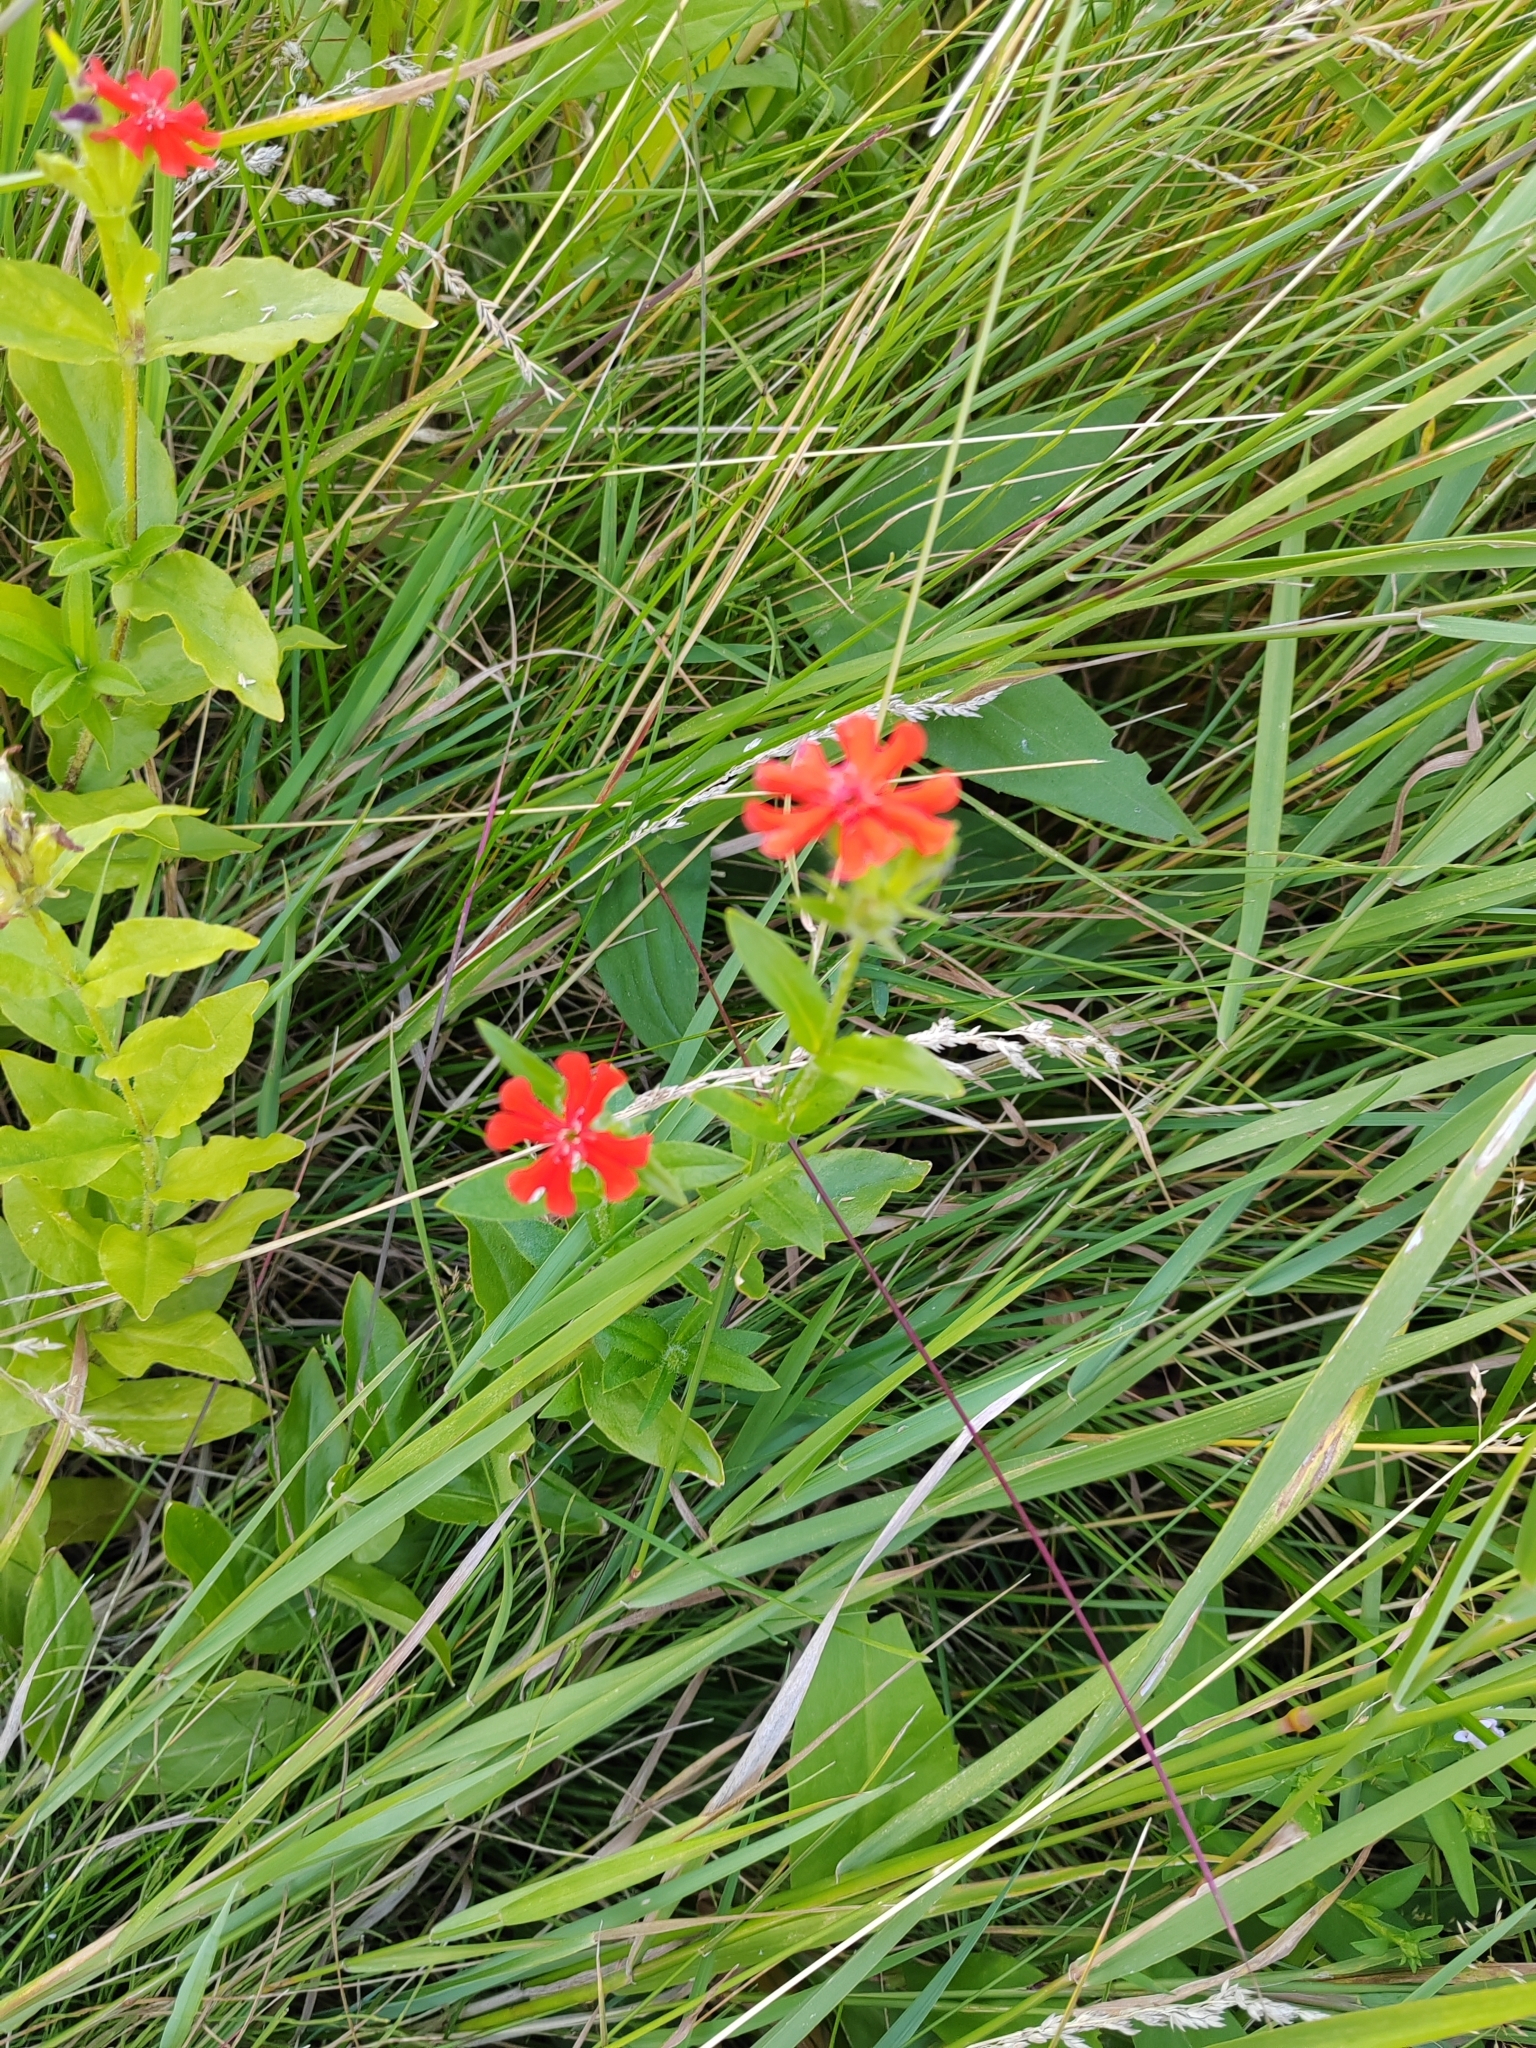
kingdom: Plantae
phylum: Tracheophyta
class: Magnoliopsida
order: Caryophyllales
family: Caryophyllaceae
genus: Silene
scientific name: Silene chalcedonica
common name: Maltese-cross
